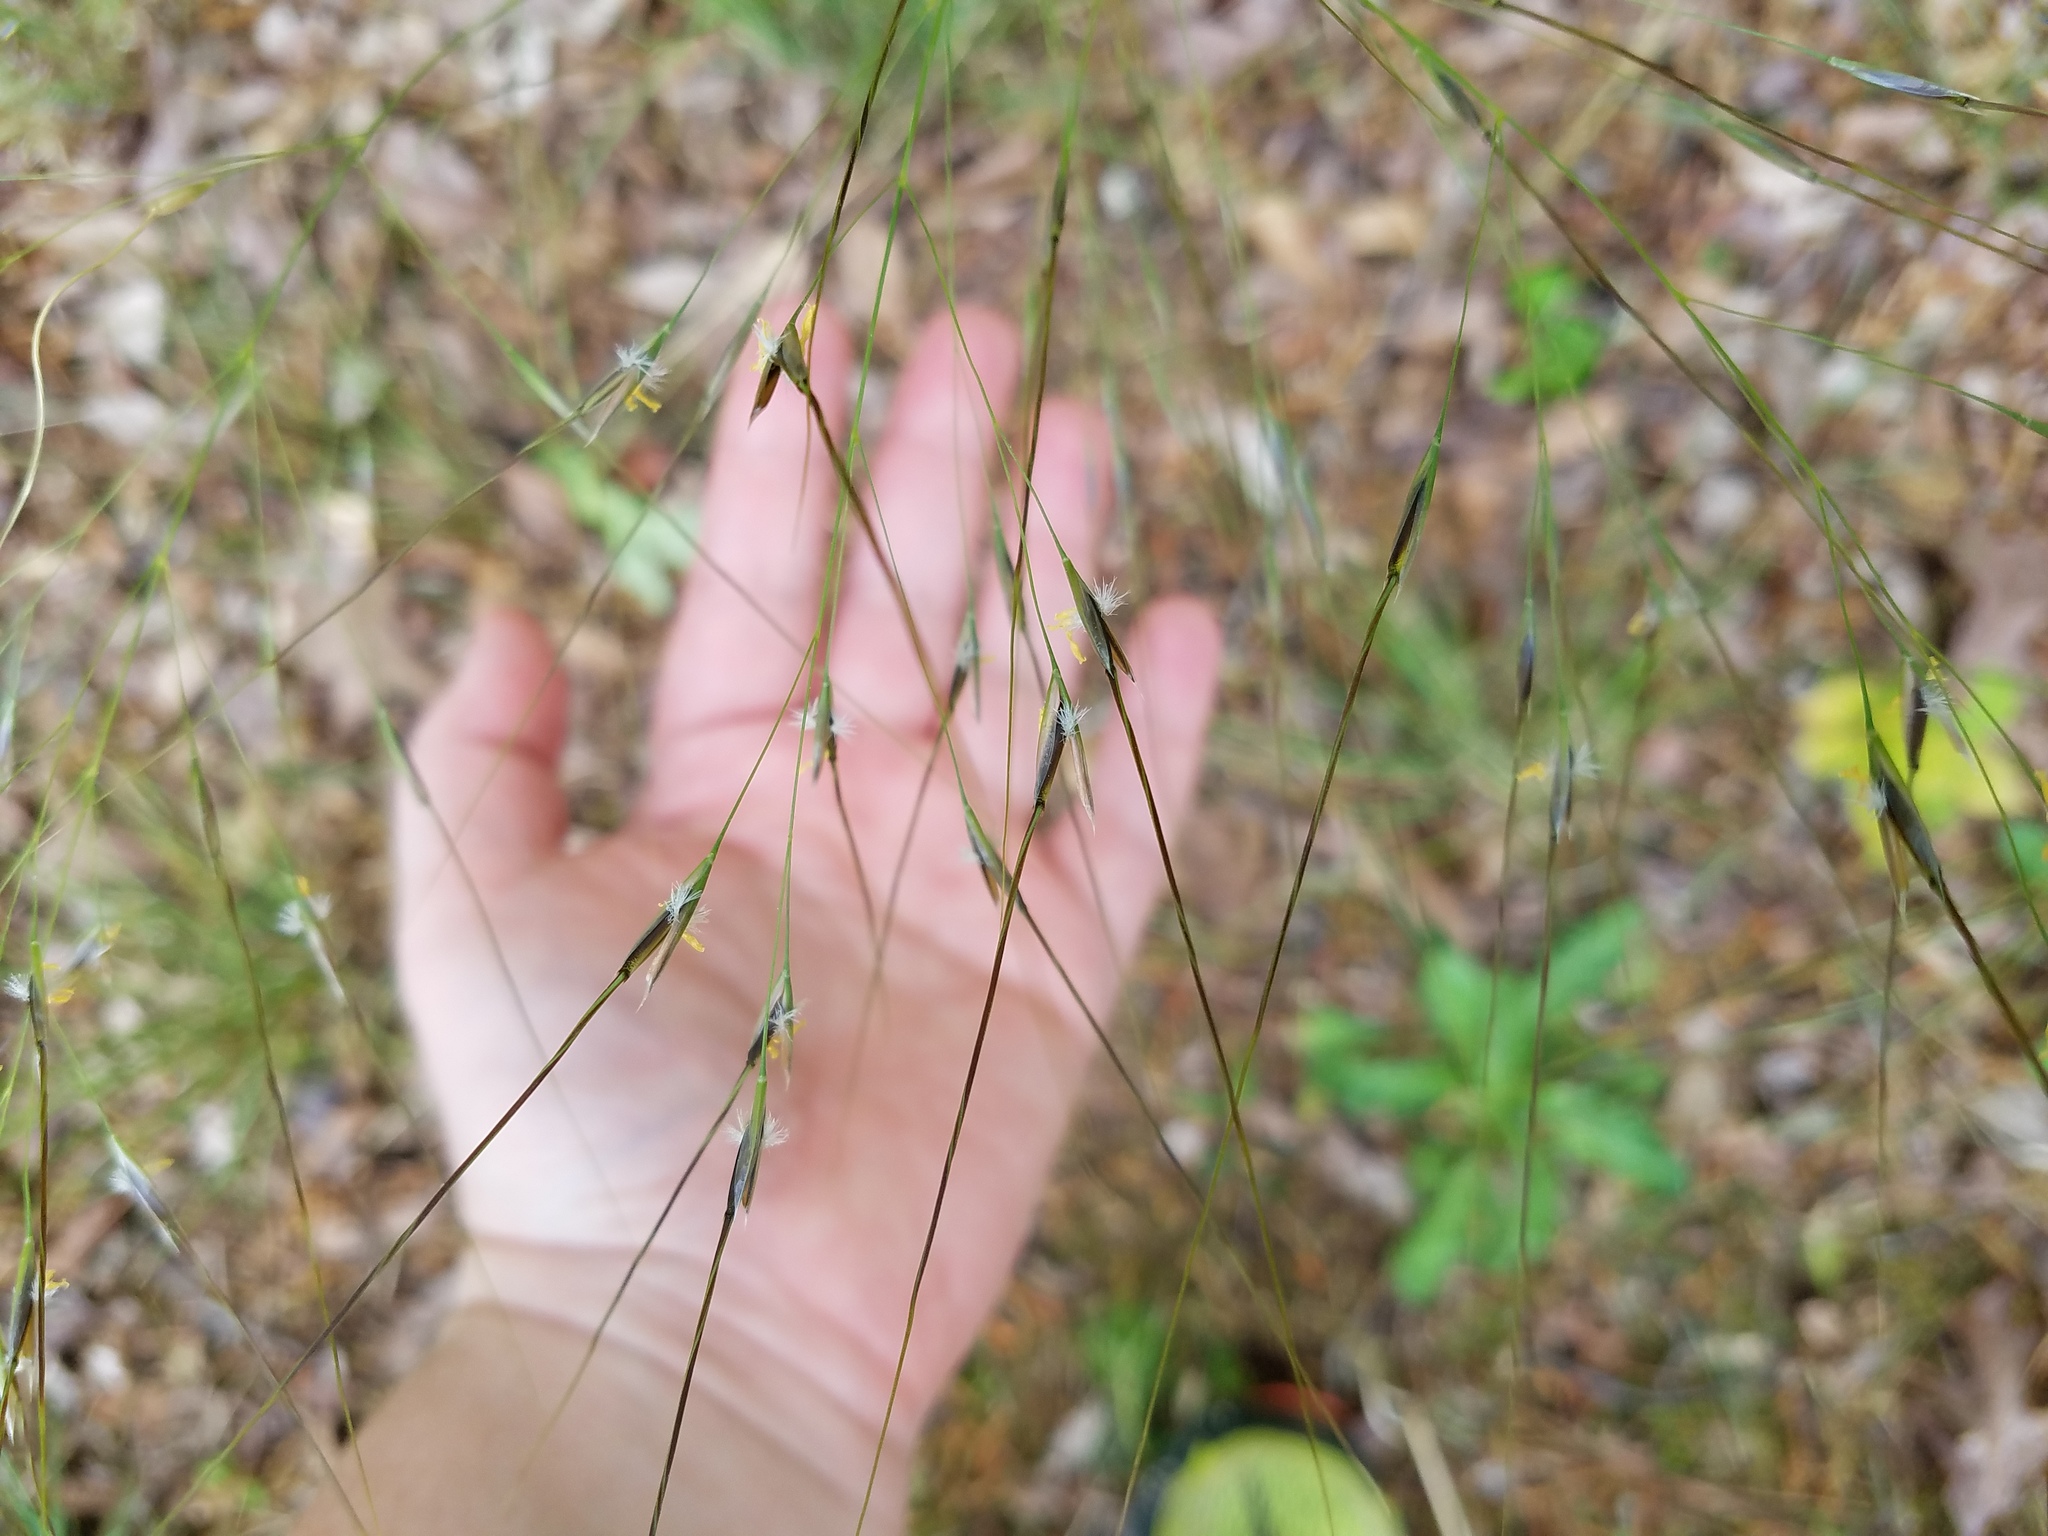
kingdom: Plantae
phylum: Tracheophyta
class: Liliopsida
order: Poales
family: Poaceae
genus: Piptochaetium
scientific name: Piptochaetium avenaceum
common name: Black bunchgrass
